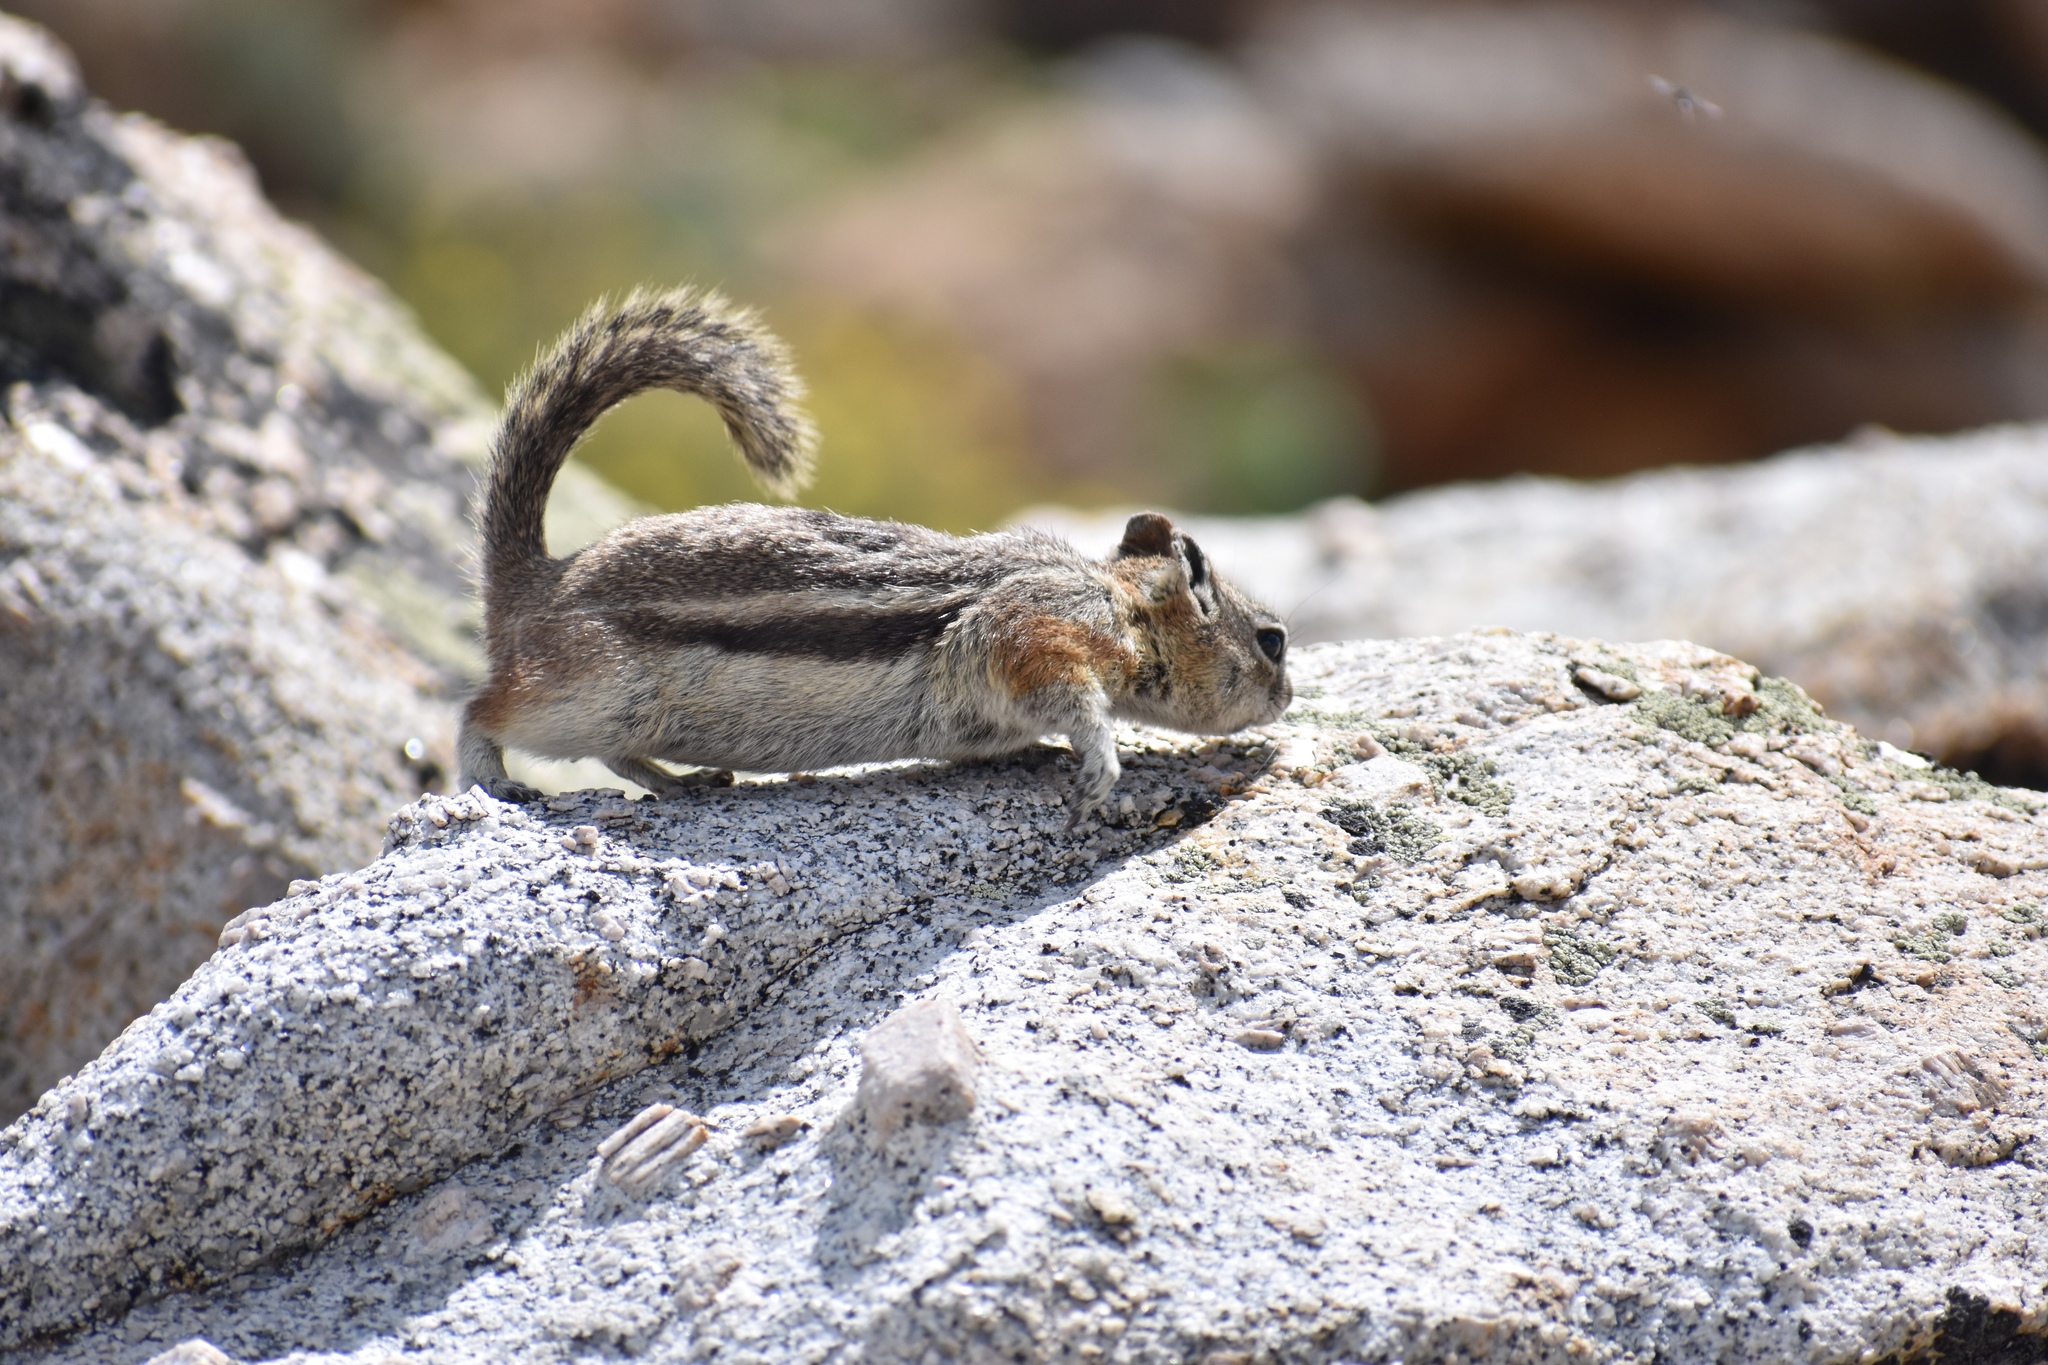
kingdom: Animalia
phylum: Chordata
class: Mammalia
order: Rodentia
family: Sciuridae
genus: Callospermophilus
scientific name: Callospermophilus lateralis
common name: Golden-mantled ground squirrel
